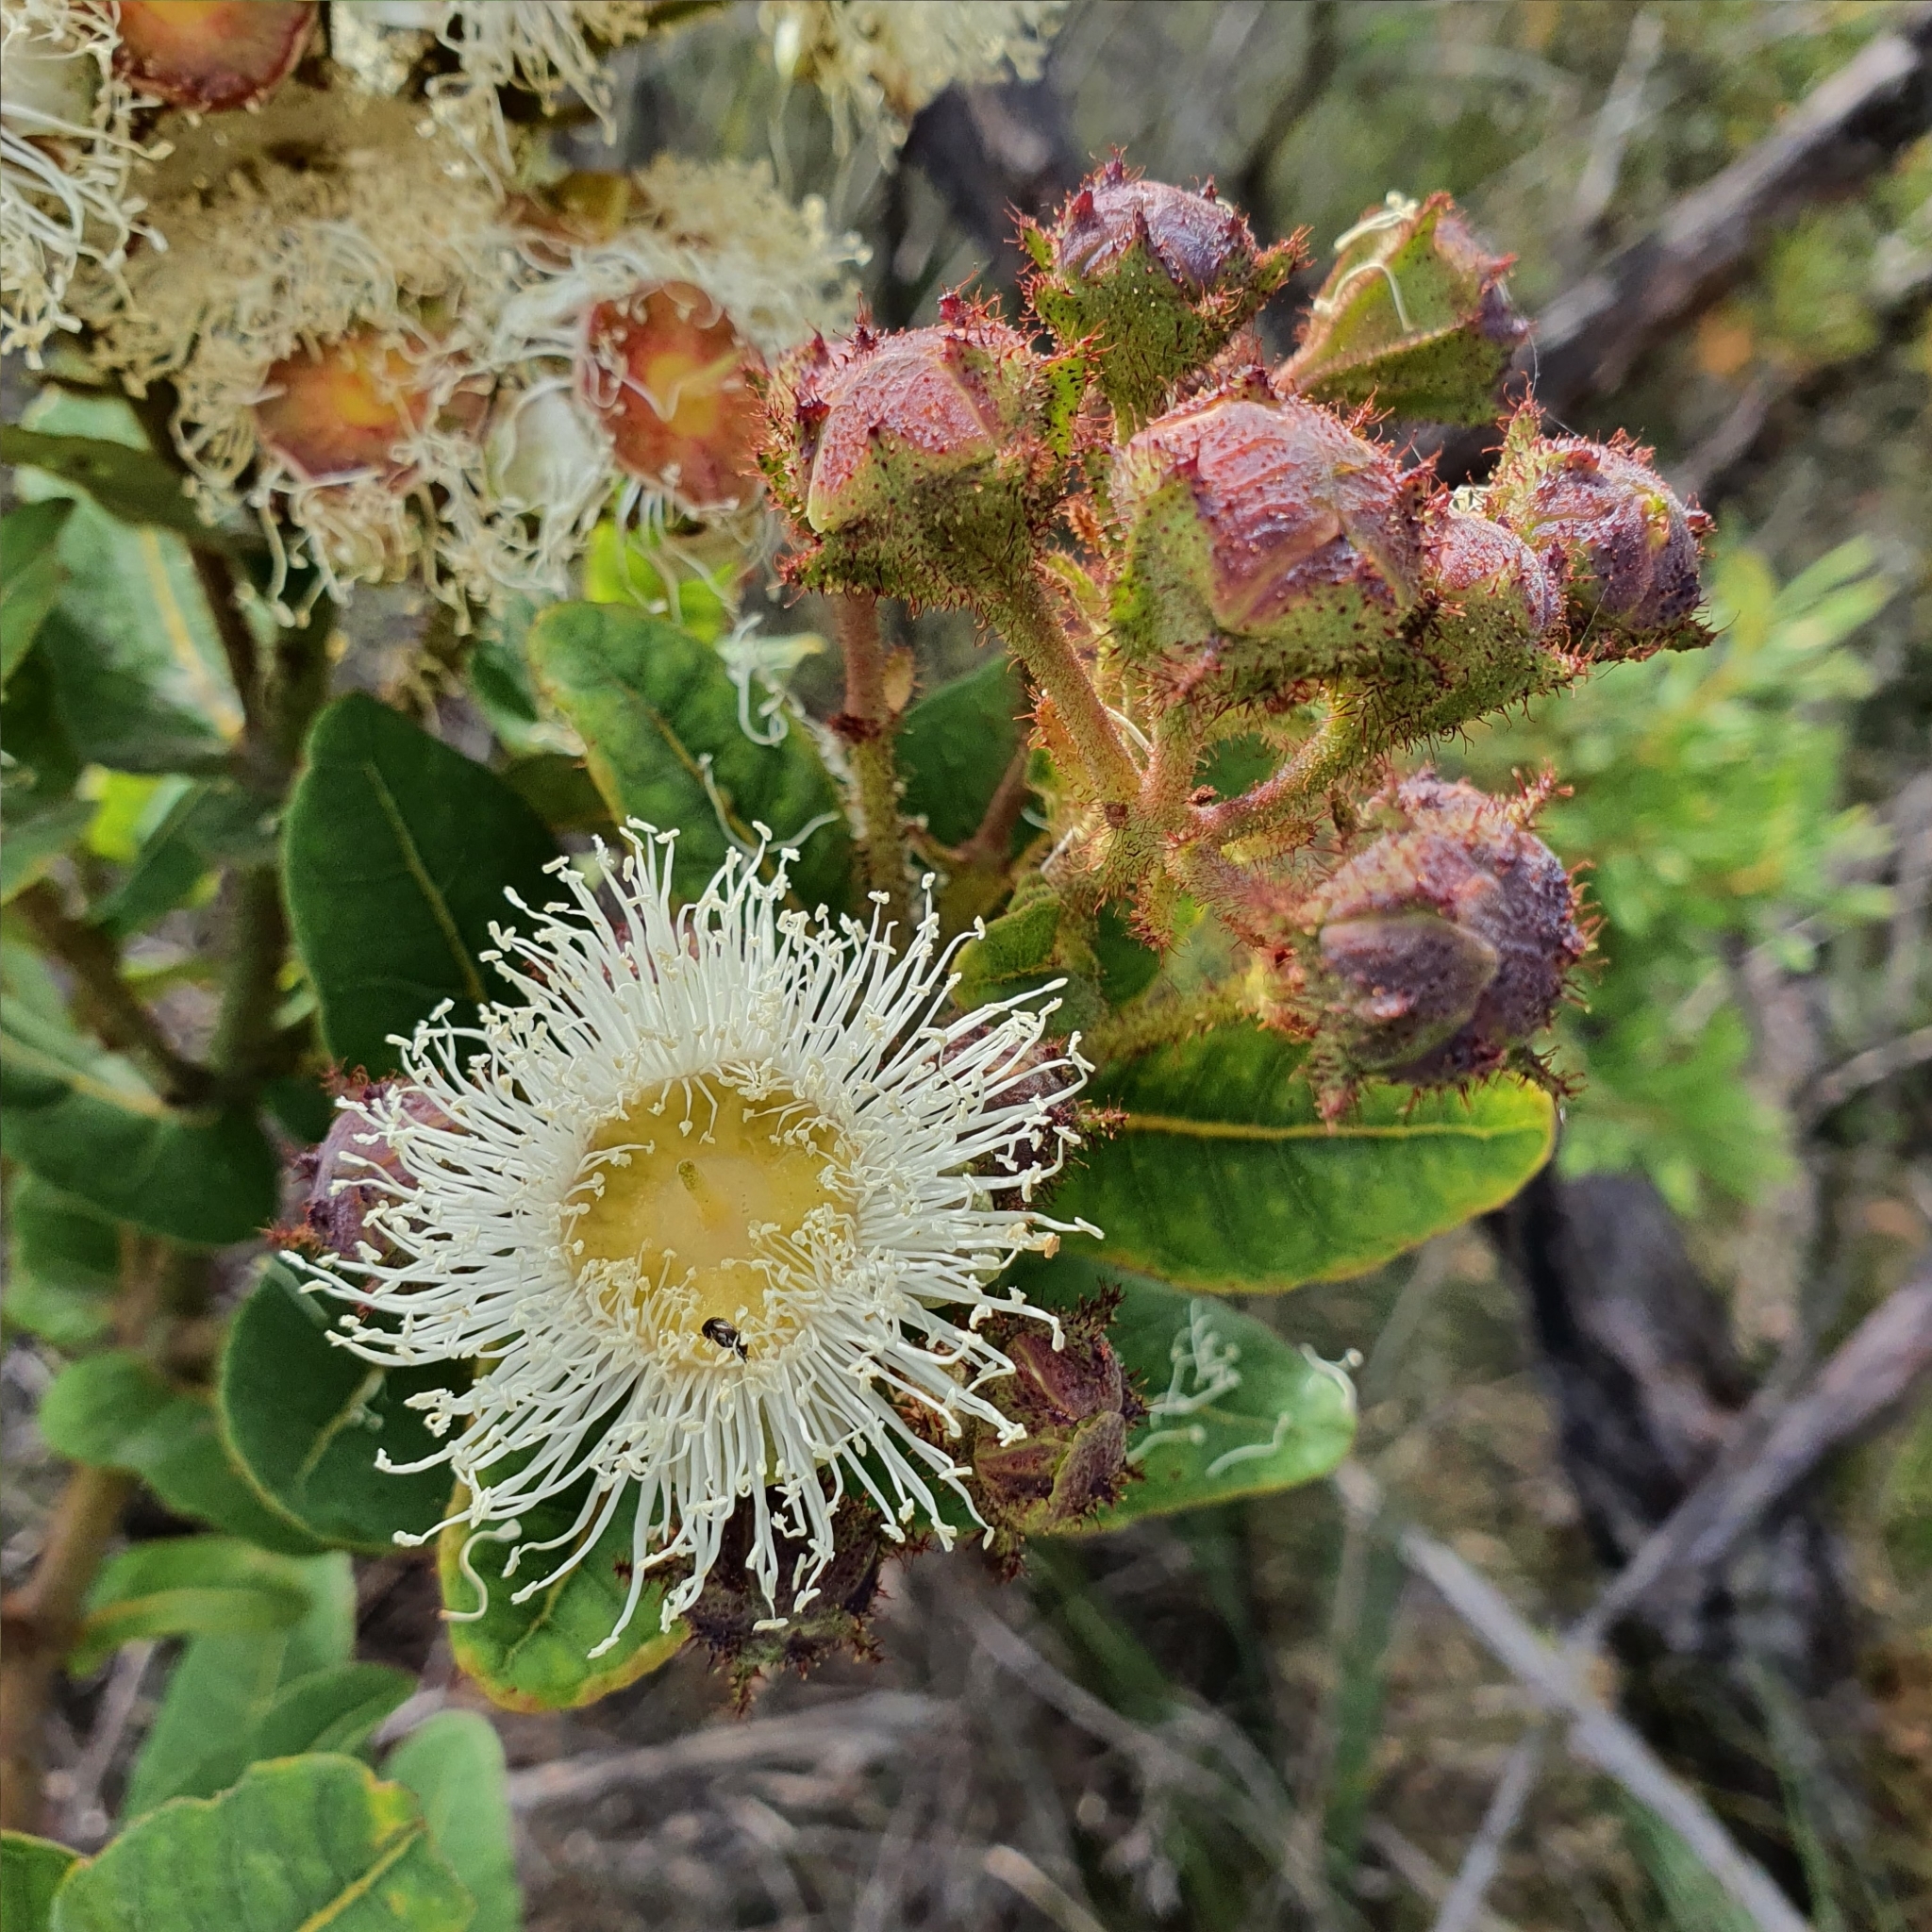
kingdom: Plantae
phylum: Tracheophyta
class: Magnoliopsida
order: Myrtales
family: Myrtaceae
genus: Angophora
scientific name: Angophora hispida
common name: Dwarf-apple
